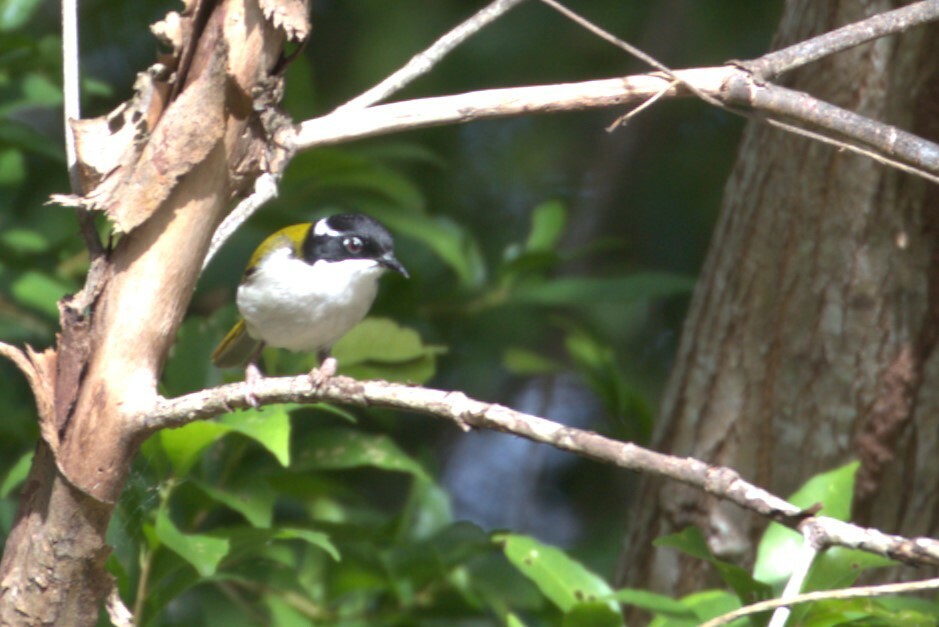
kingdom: Animalia
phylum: Chordata
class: Aves
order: Passeriformes
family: Meliphagidae
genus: Melithreptus
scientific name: Melithreptus albogularis
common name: White-throated honeyeater
